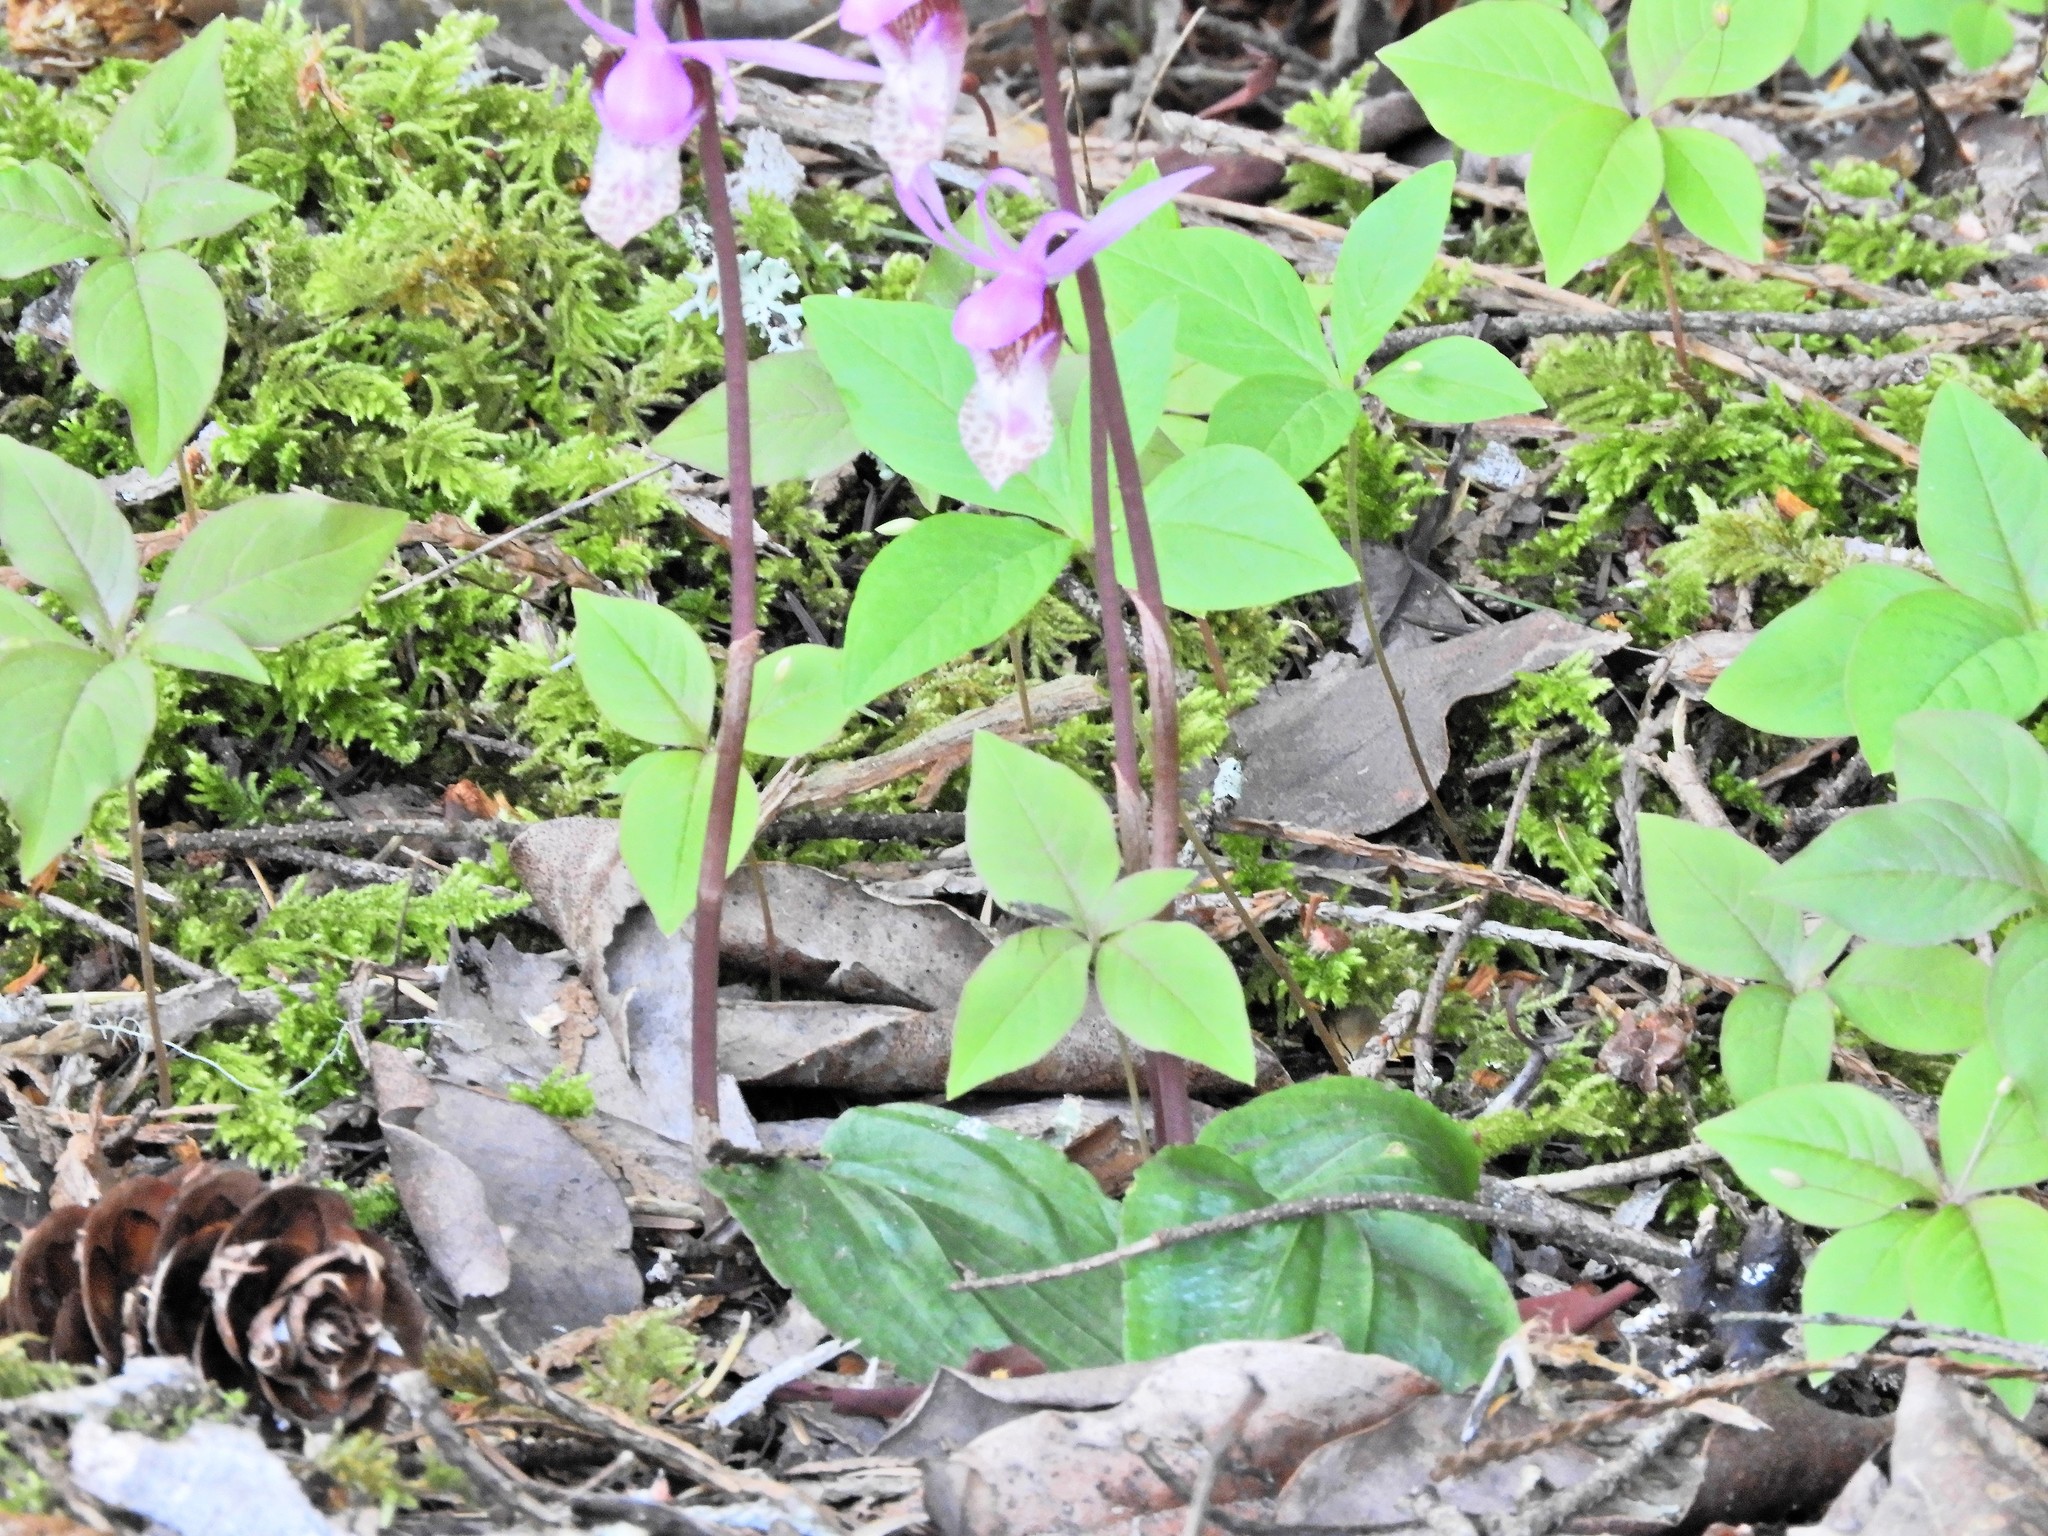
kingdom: Plantae
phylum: Tracheophyta
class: Liliopsida
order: Asparagales
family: Orchidaceae
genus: Calypso
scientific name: Calypso bulbosa
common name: Calypso
